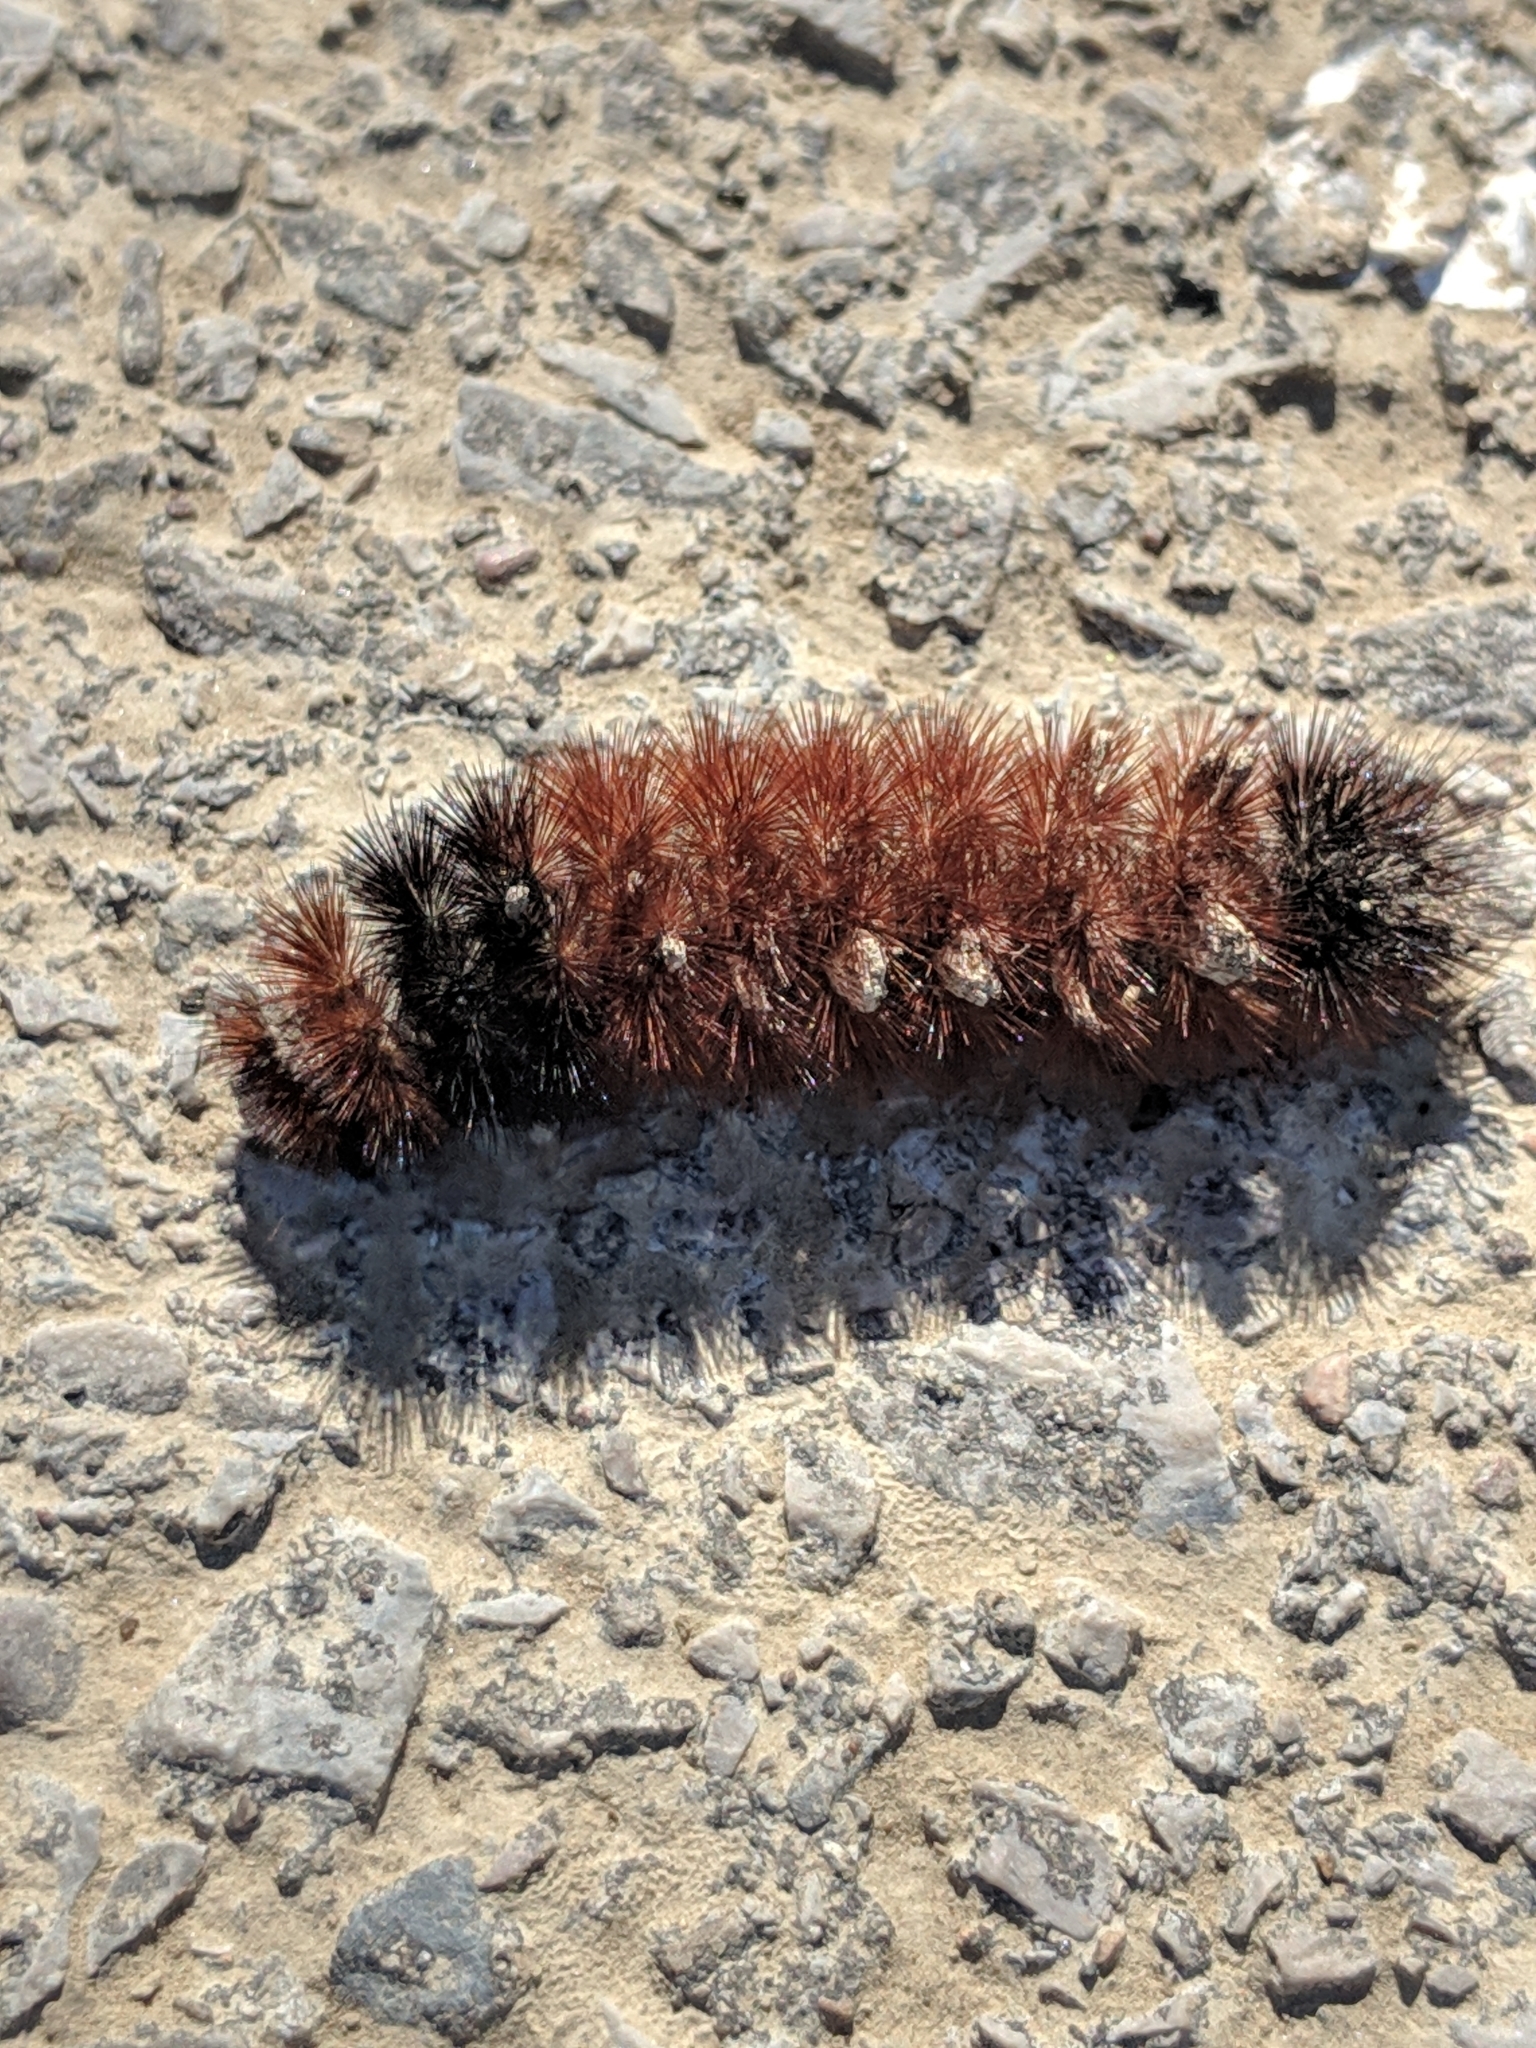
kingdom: Animalia
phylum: Arthropoda
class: Insecta
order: Lepidoptera
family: Erebidae
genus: Pyrrharctia
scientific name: Pyrrharctia isabella
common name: Isabella tiger moth
